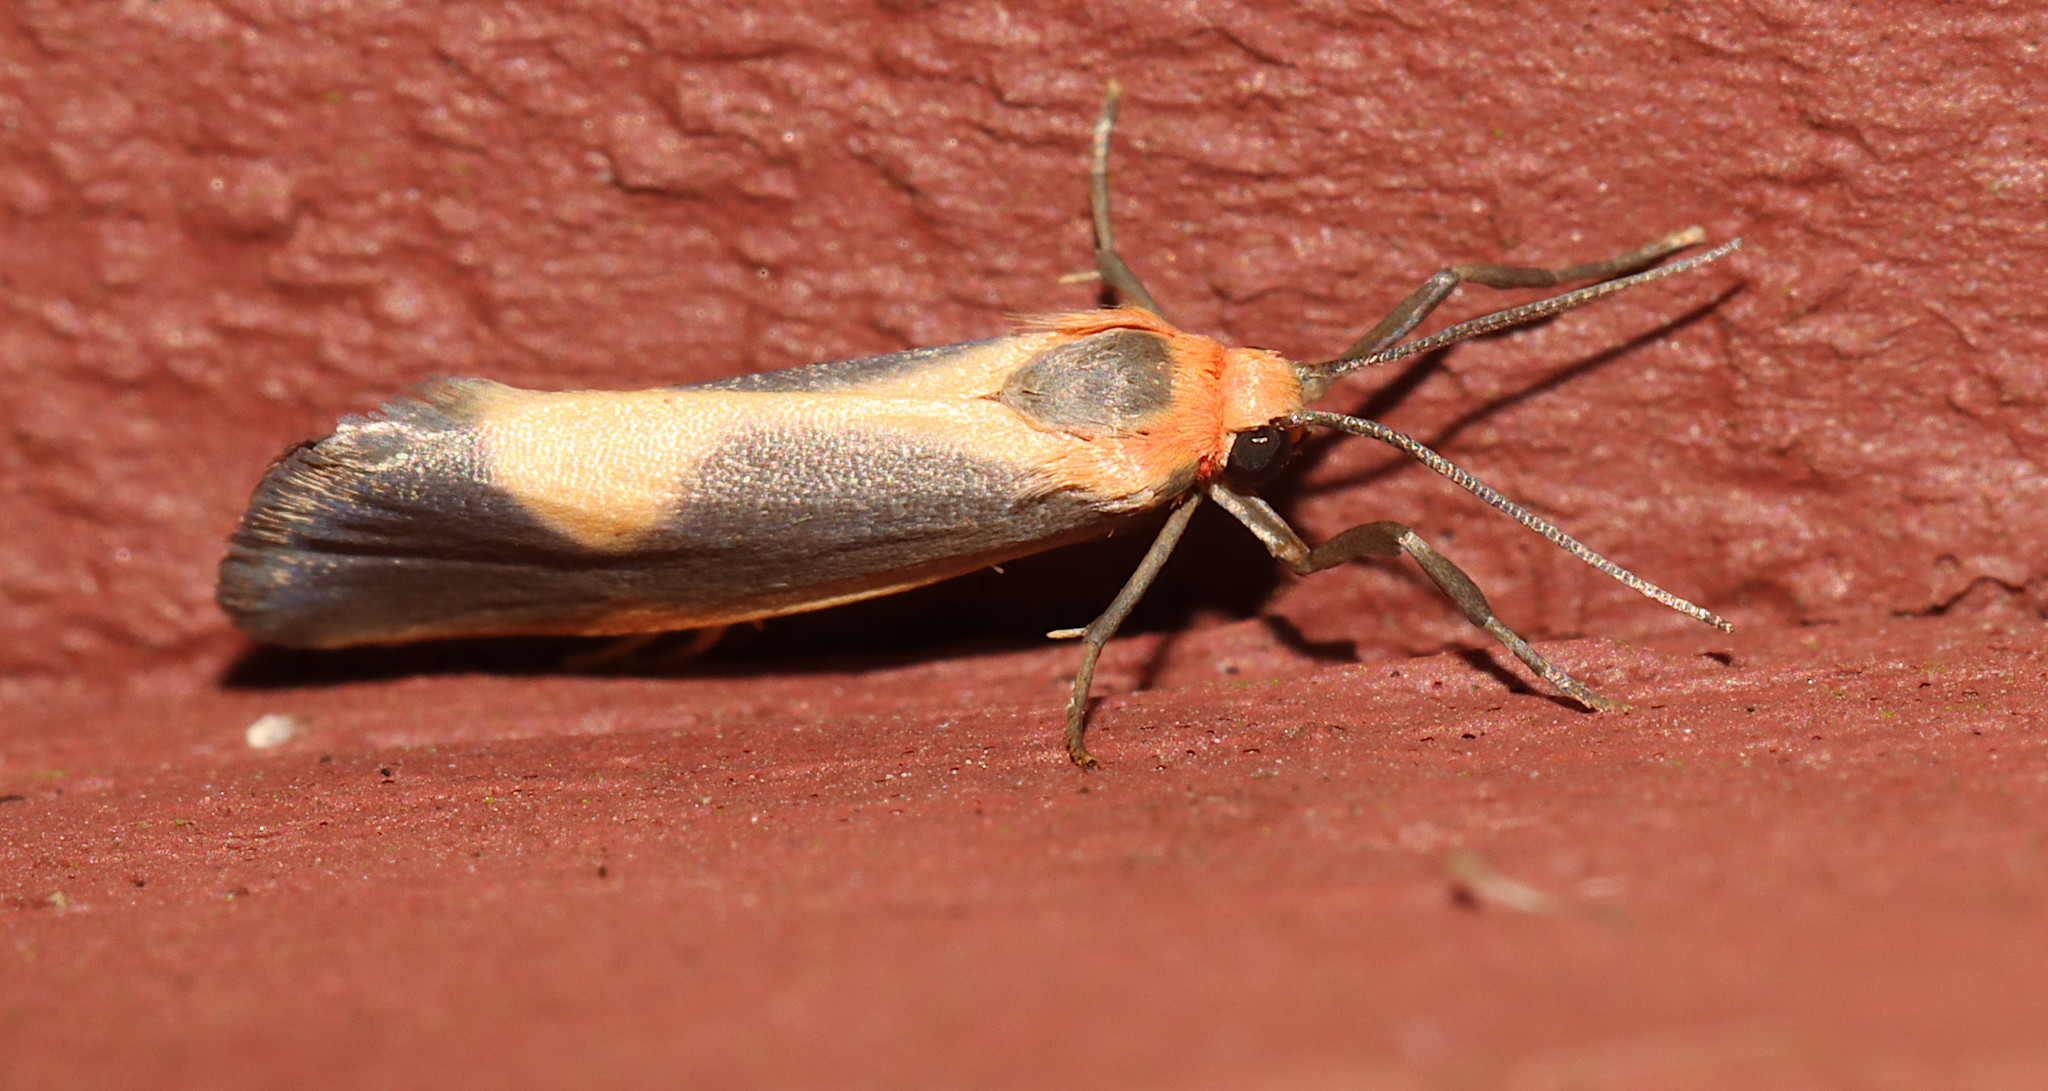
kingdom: Animalia
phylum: Arthropoda
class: Insecta
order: Lepidoptera
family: Erebidae
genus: Cisthene
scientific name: Cisthene plumbea
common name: Lead colored lichen moth
